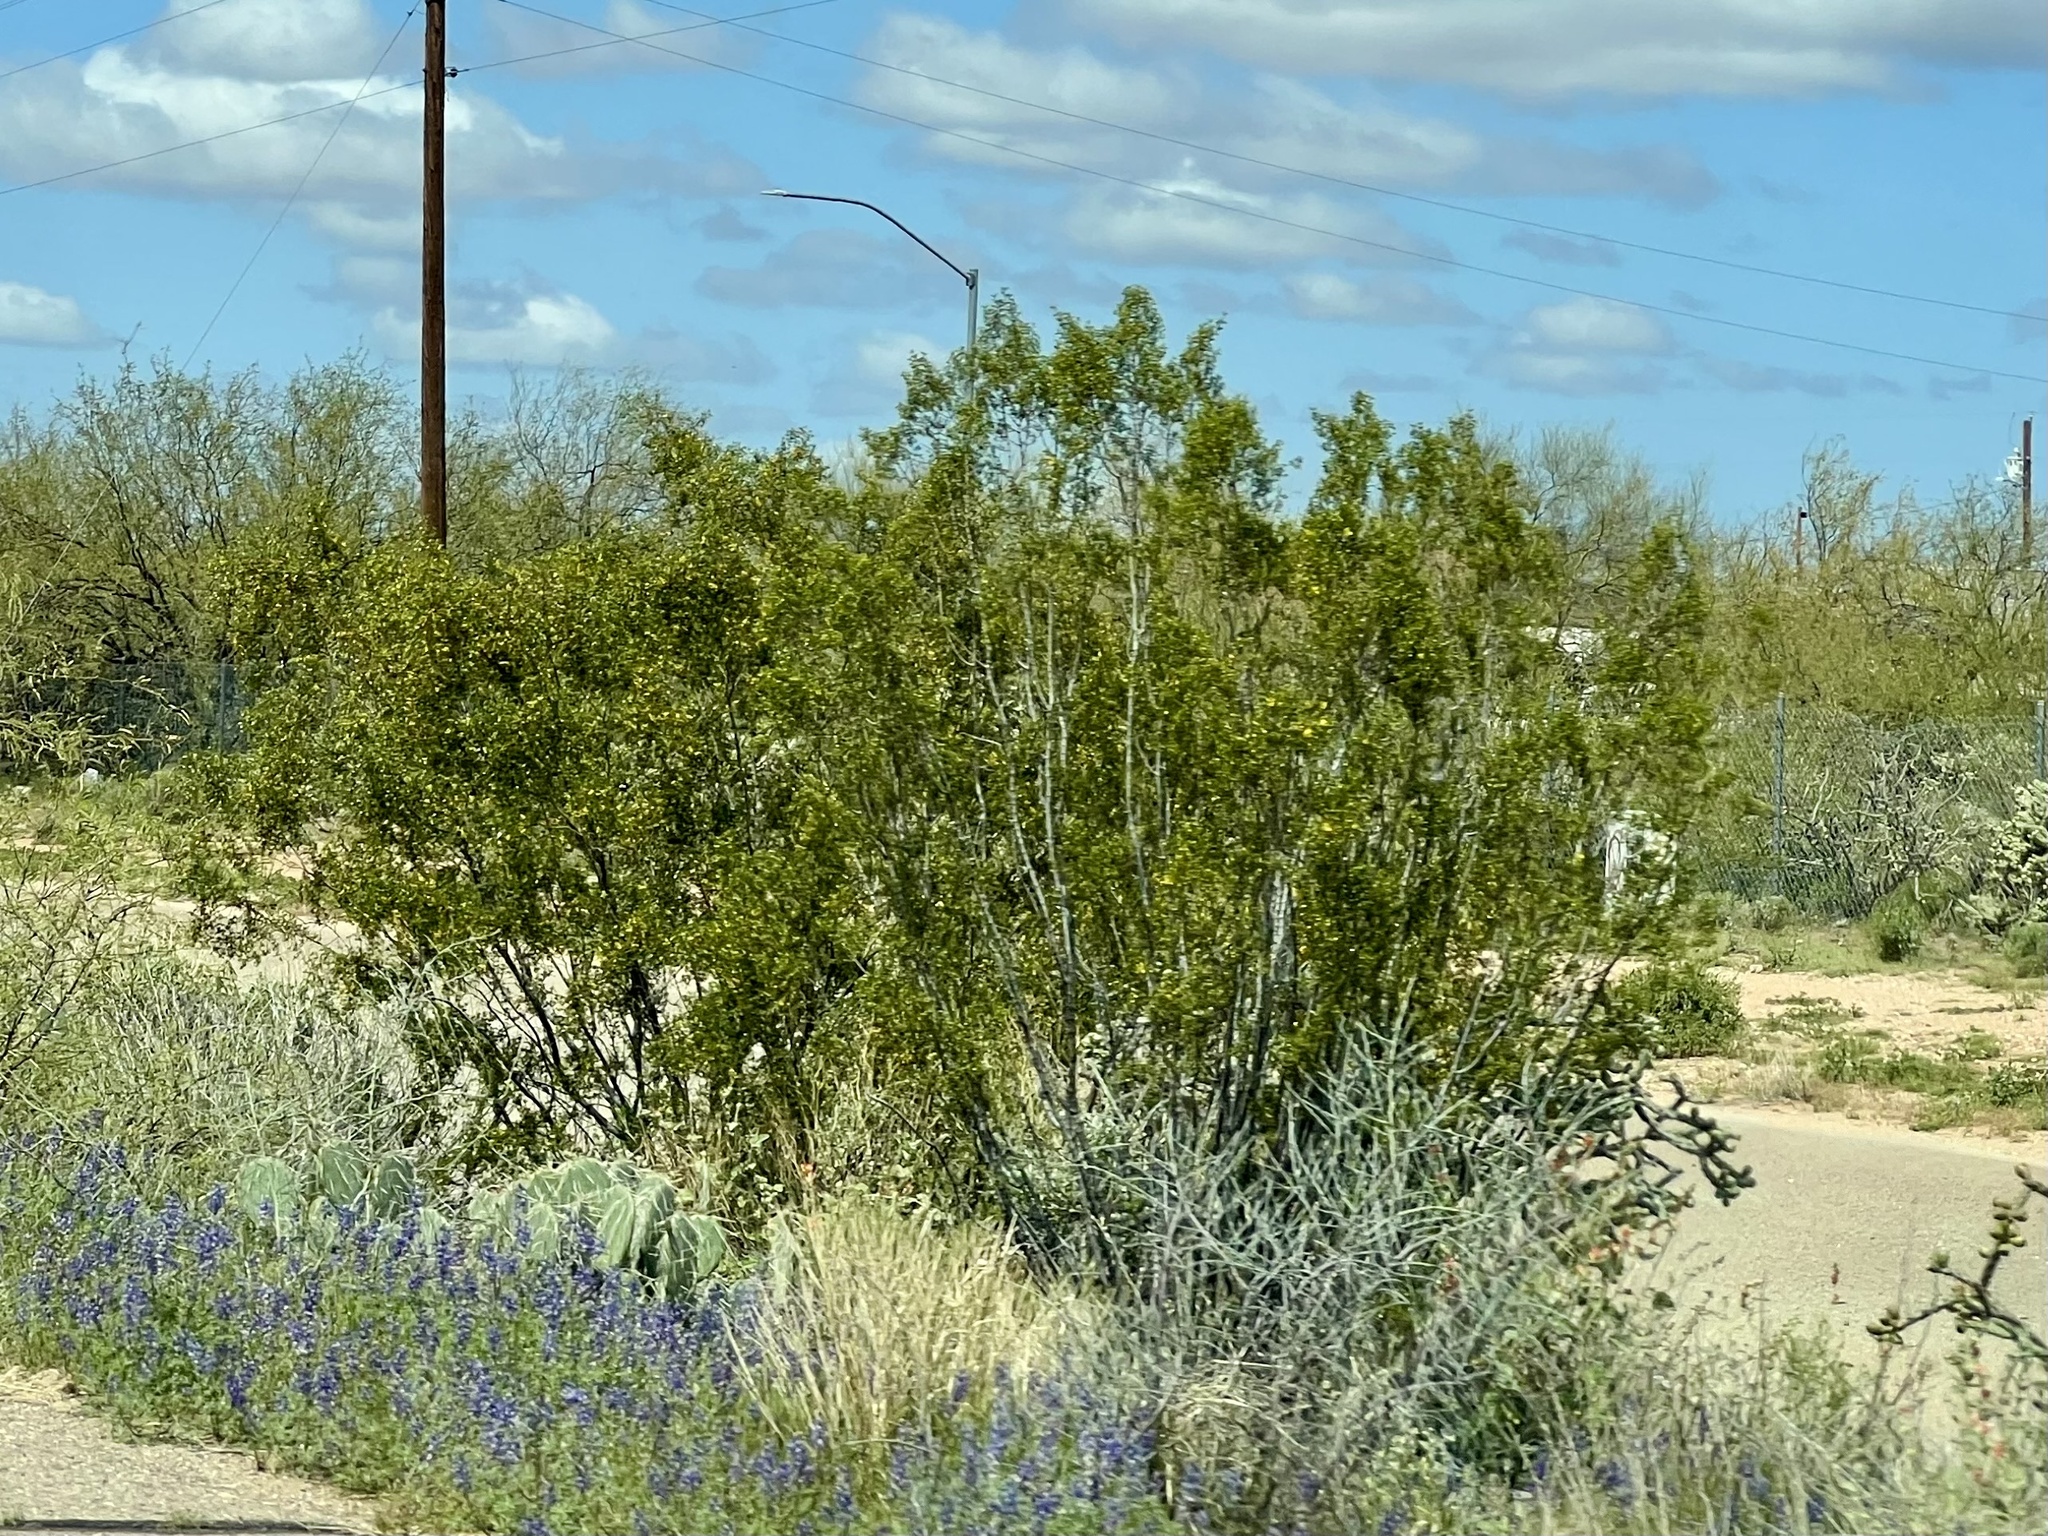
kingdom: Plantae
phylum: Tracheophyta
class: Magnoliopsida
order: Zygophyllales
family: Zygophyllaceae
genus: Larrea
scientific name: Larrea tridentata
